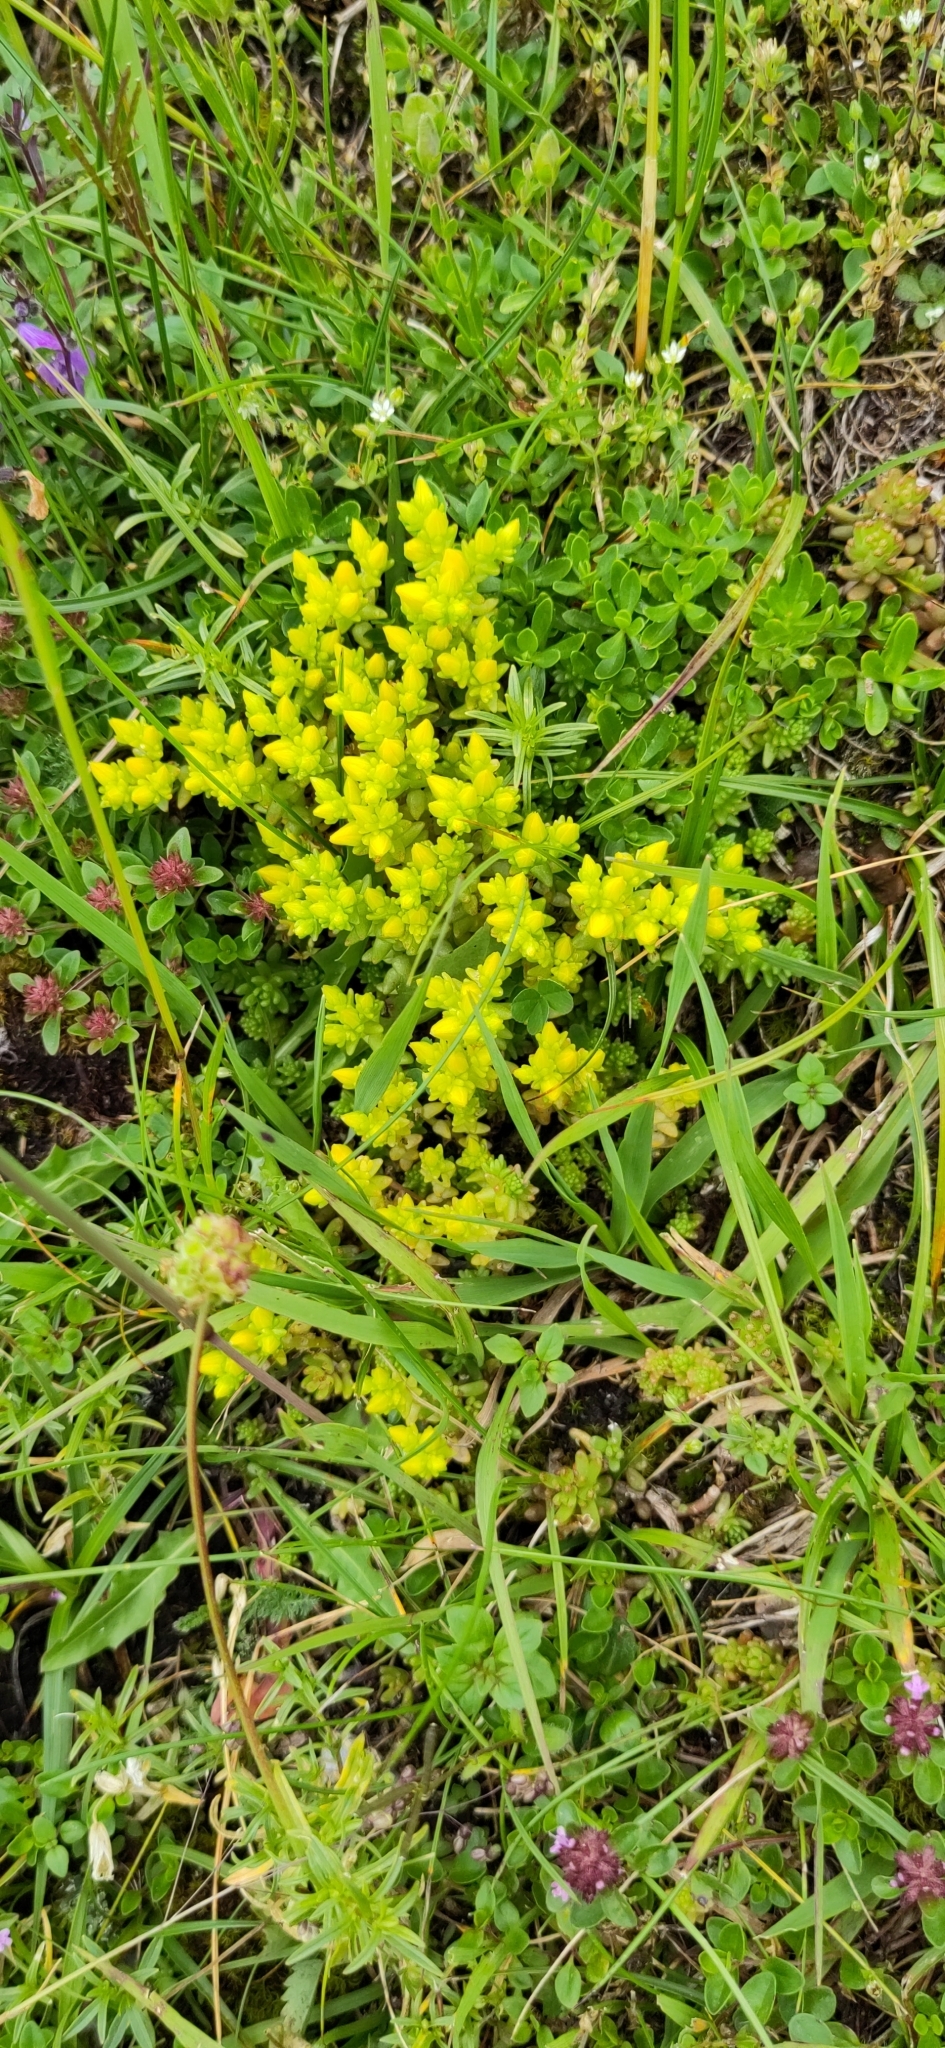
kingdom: Plantae
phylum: Tracheophyta
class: Magnoliopsida
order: Saxifragales
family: Crassulaceae
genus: Sedum
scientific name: Sedum acre
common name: Biting stonecrop
